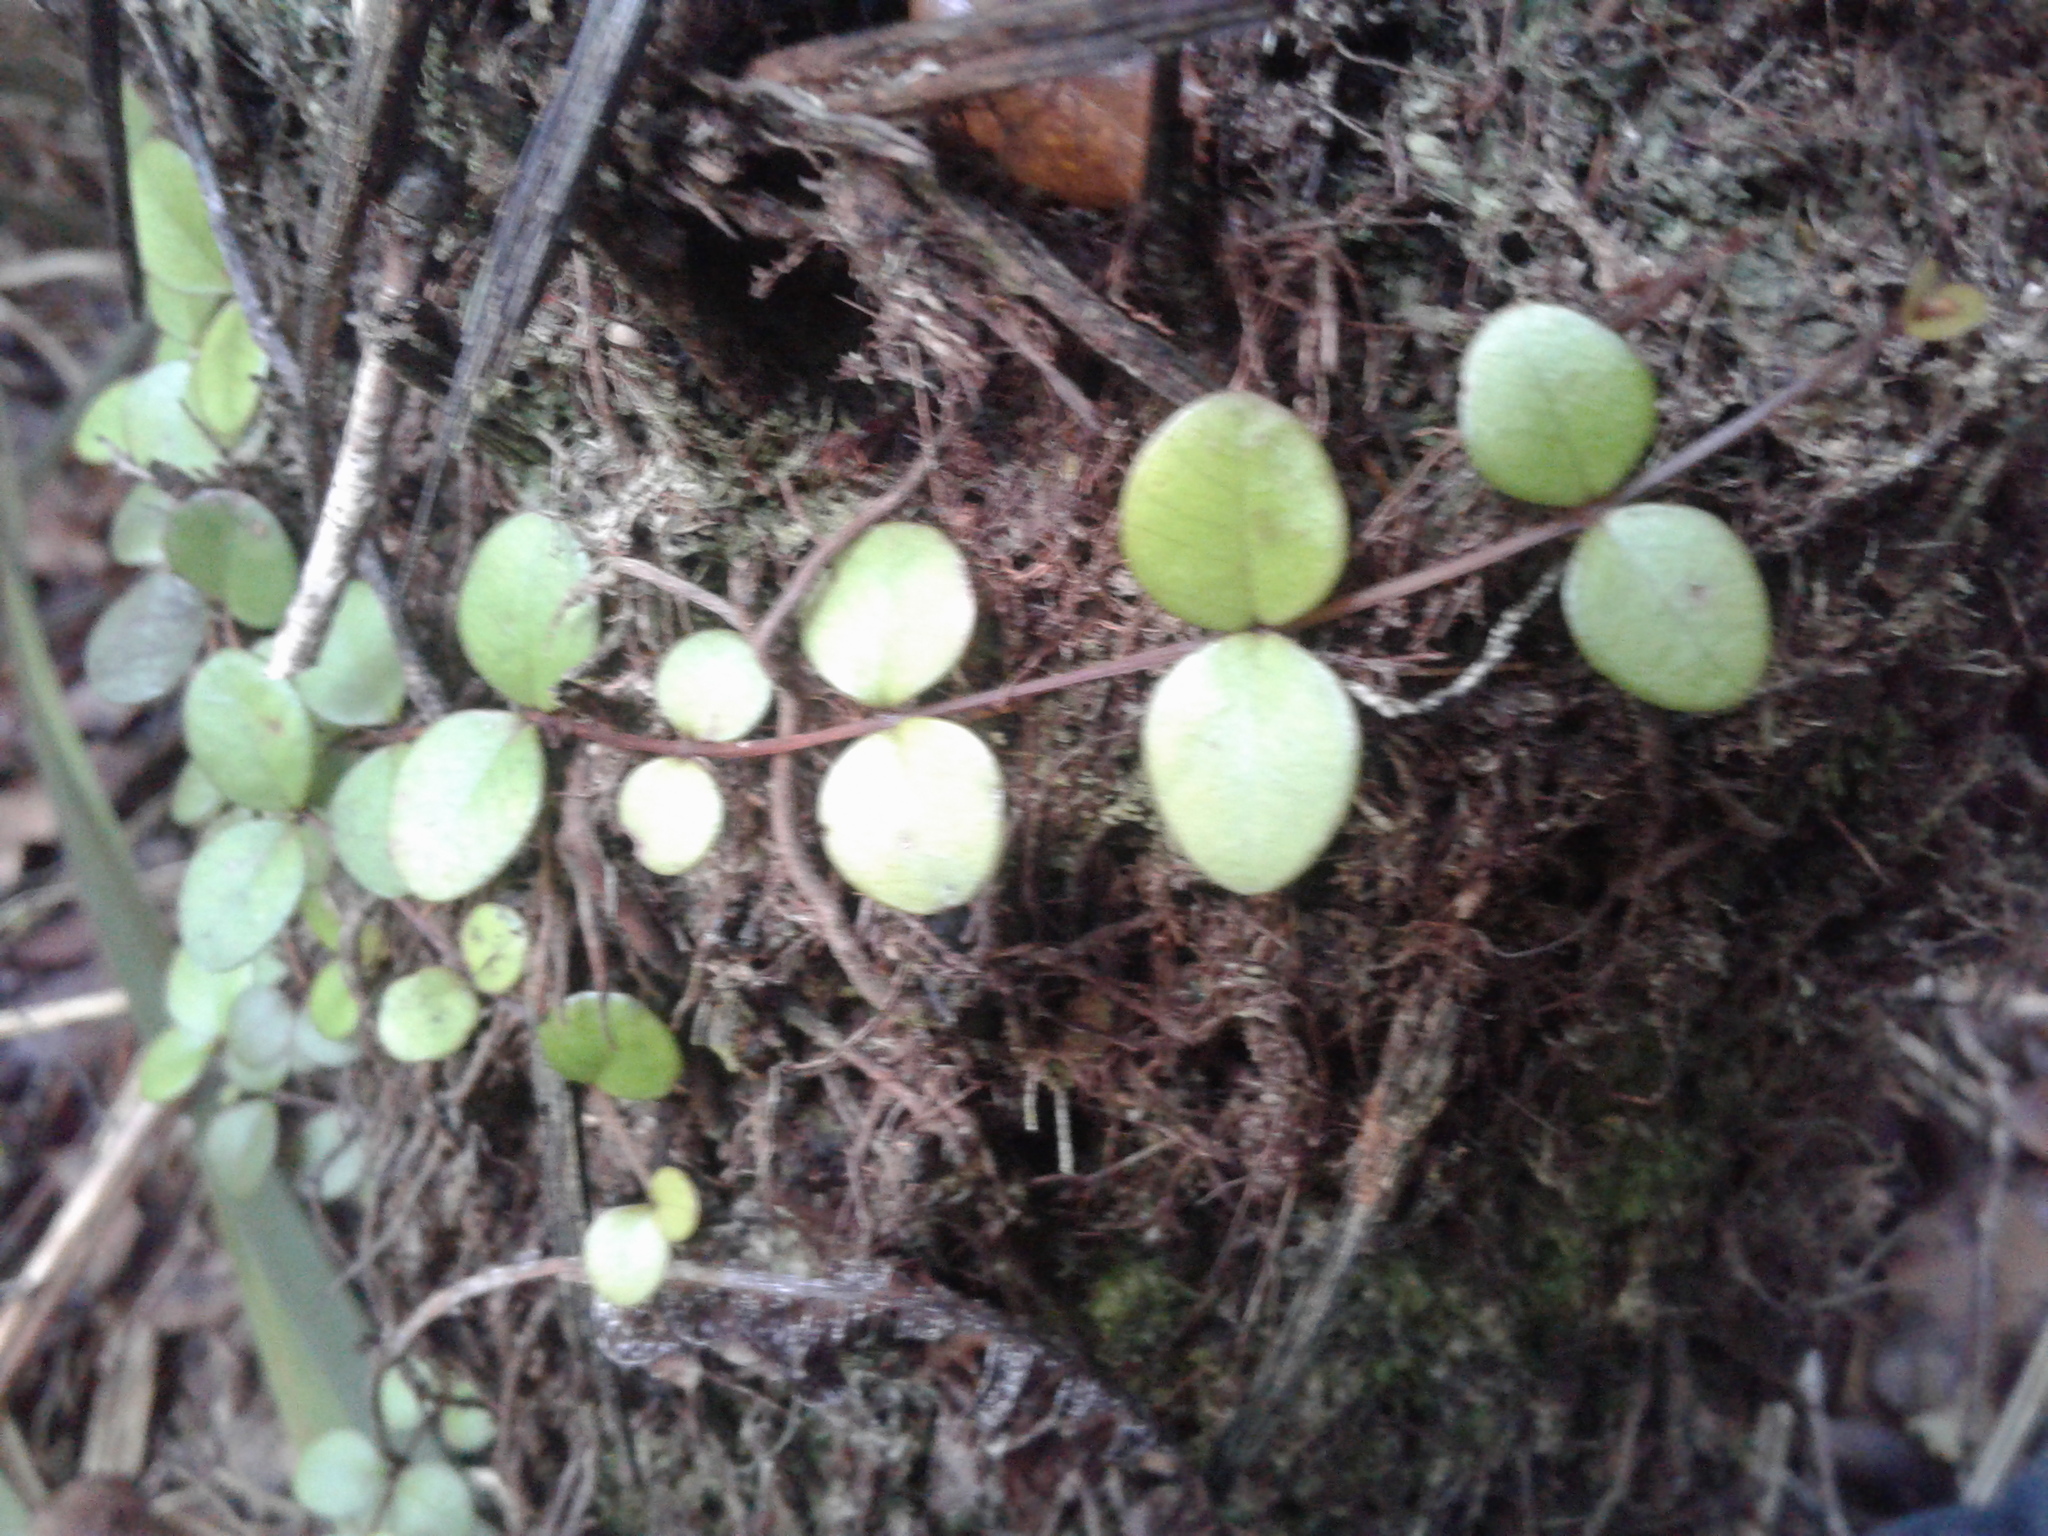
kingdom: Plantae
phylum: Tracheophyta
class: Magnoliopsida
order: Myrtales
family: Myrtaceae
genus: Metrosideros
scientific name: Metrosideros perforata
